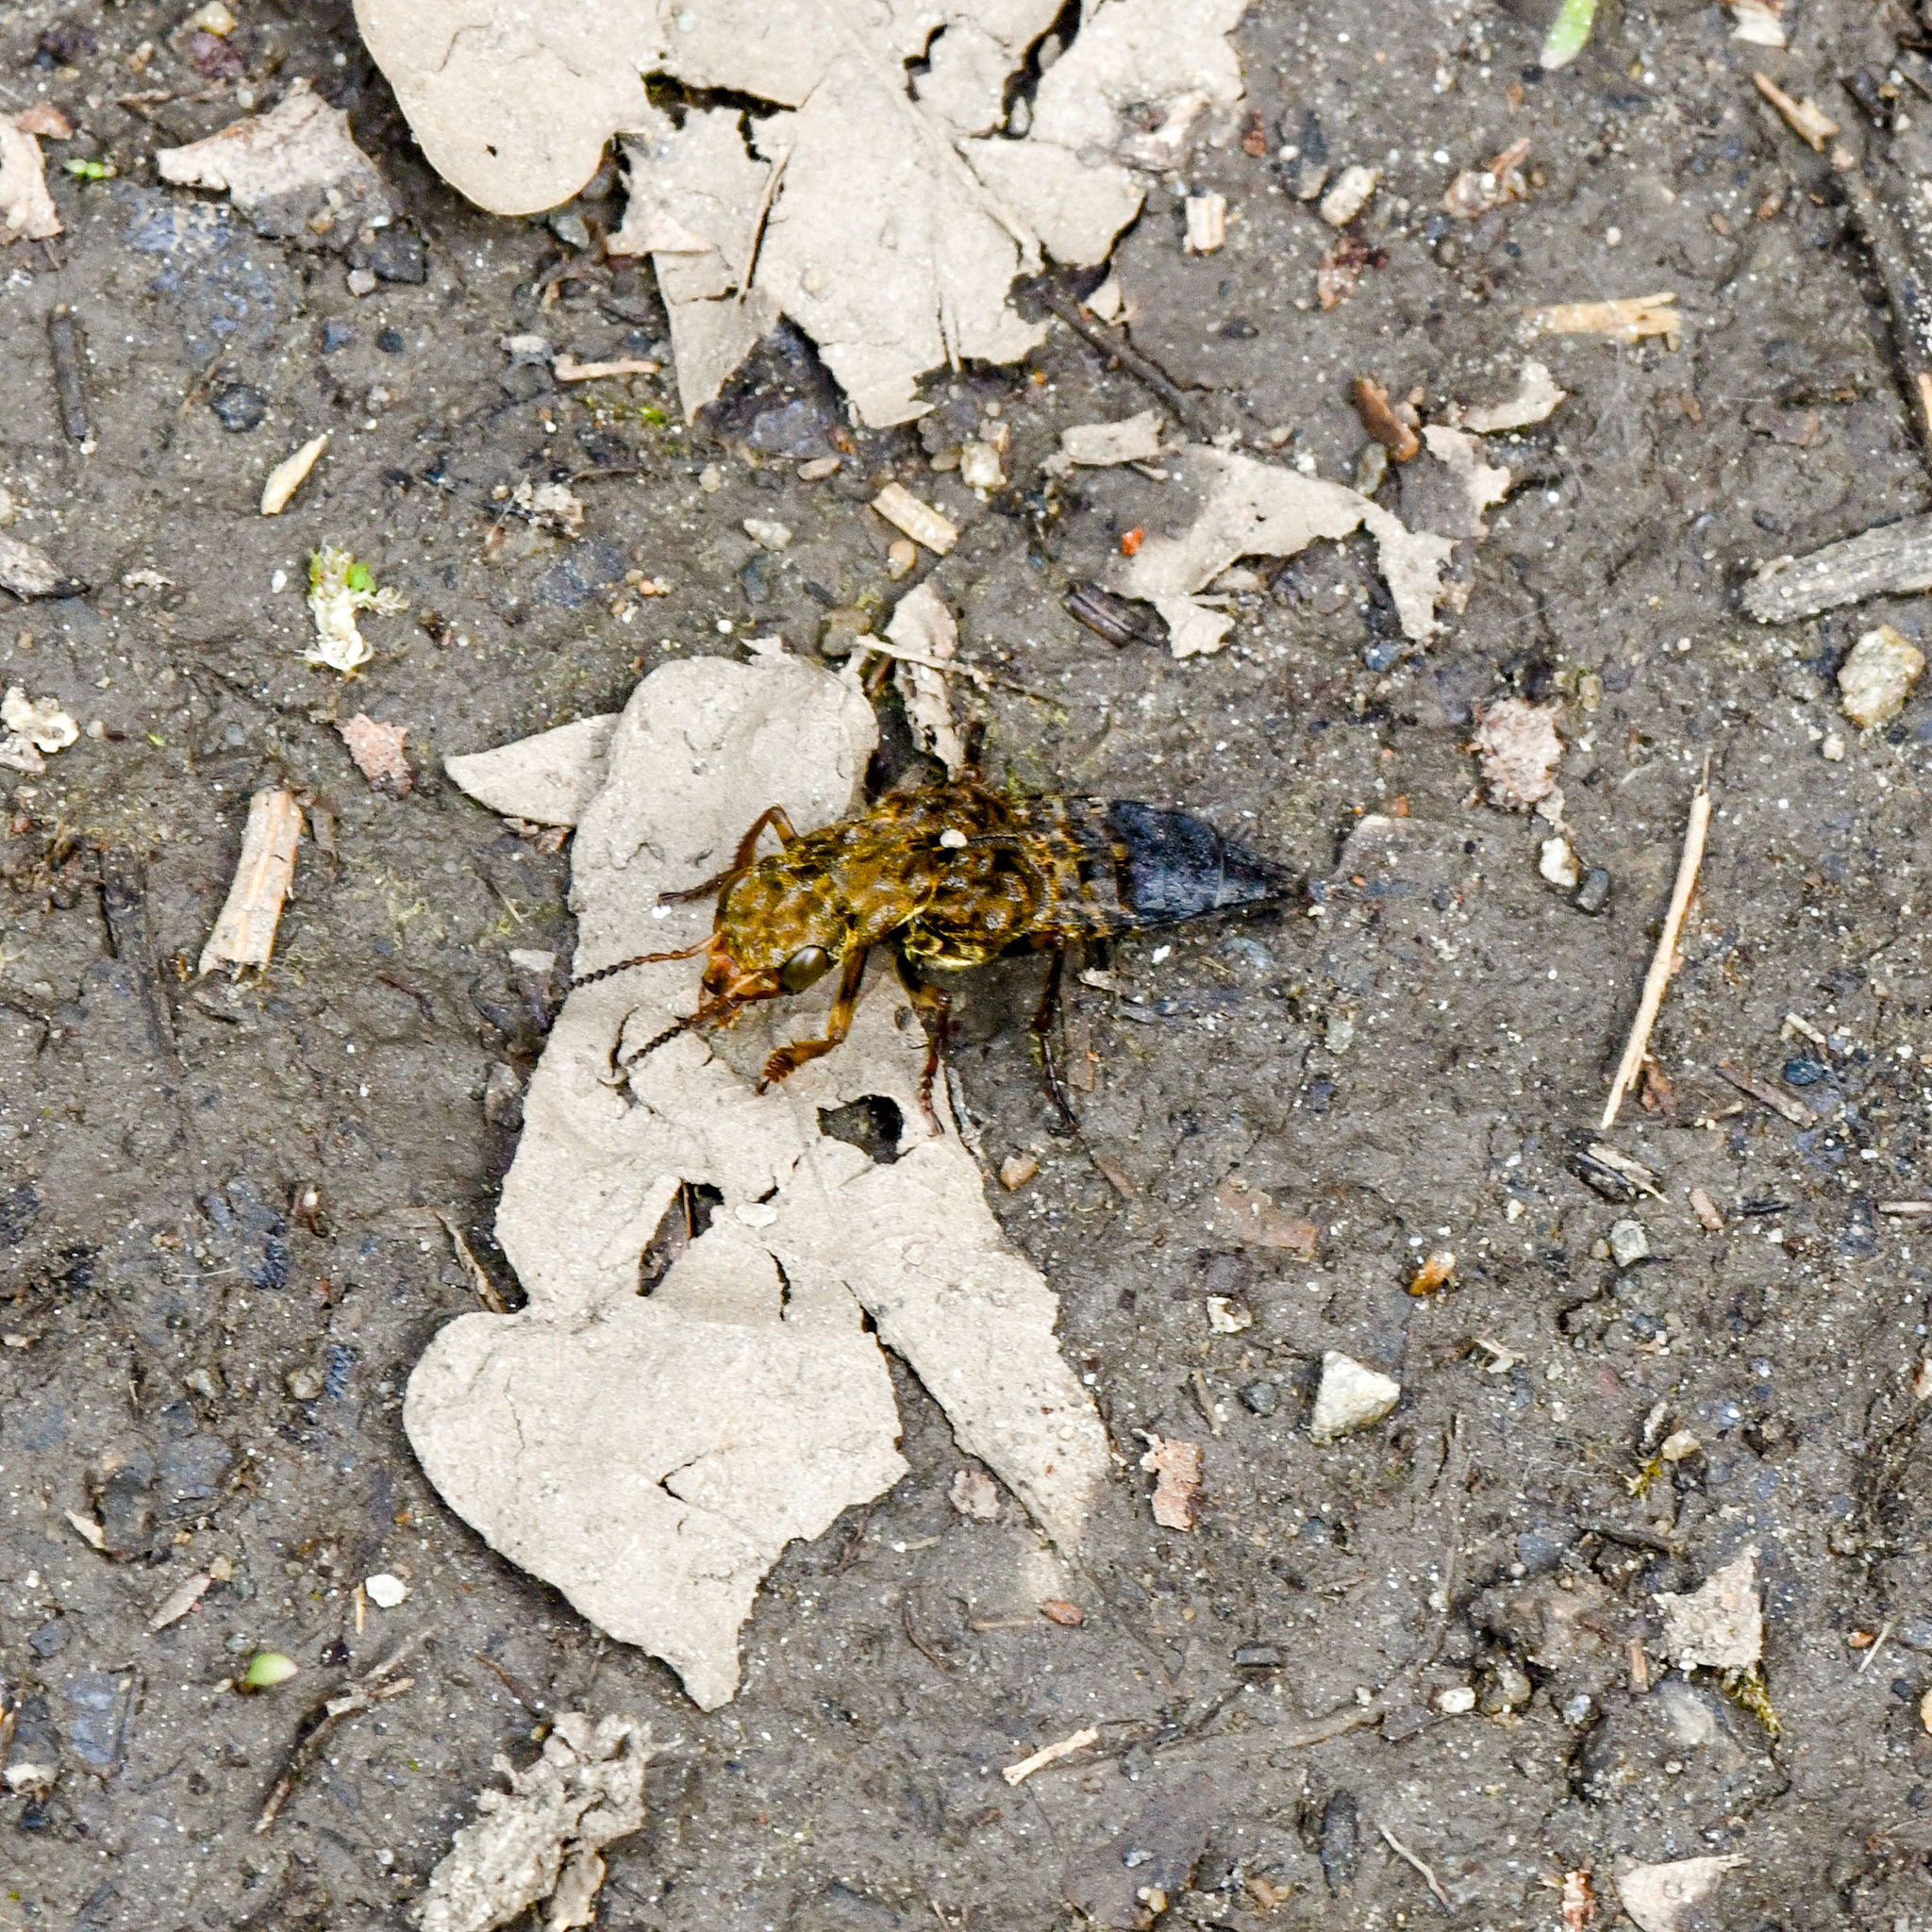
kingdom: Animalia
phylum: Arthropoda
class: Insecta
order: Coleoptera
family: Staphylinidae
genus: Ontholestes
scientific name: Ontholestes tessellatus
